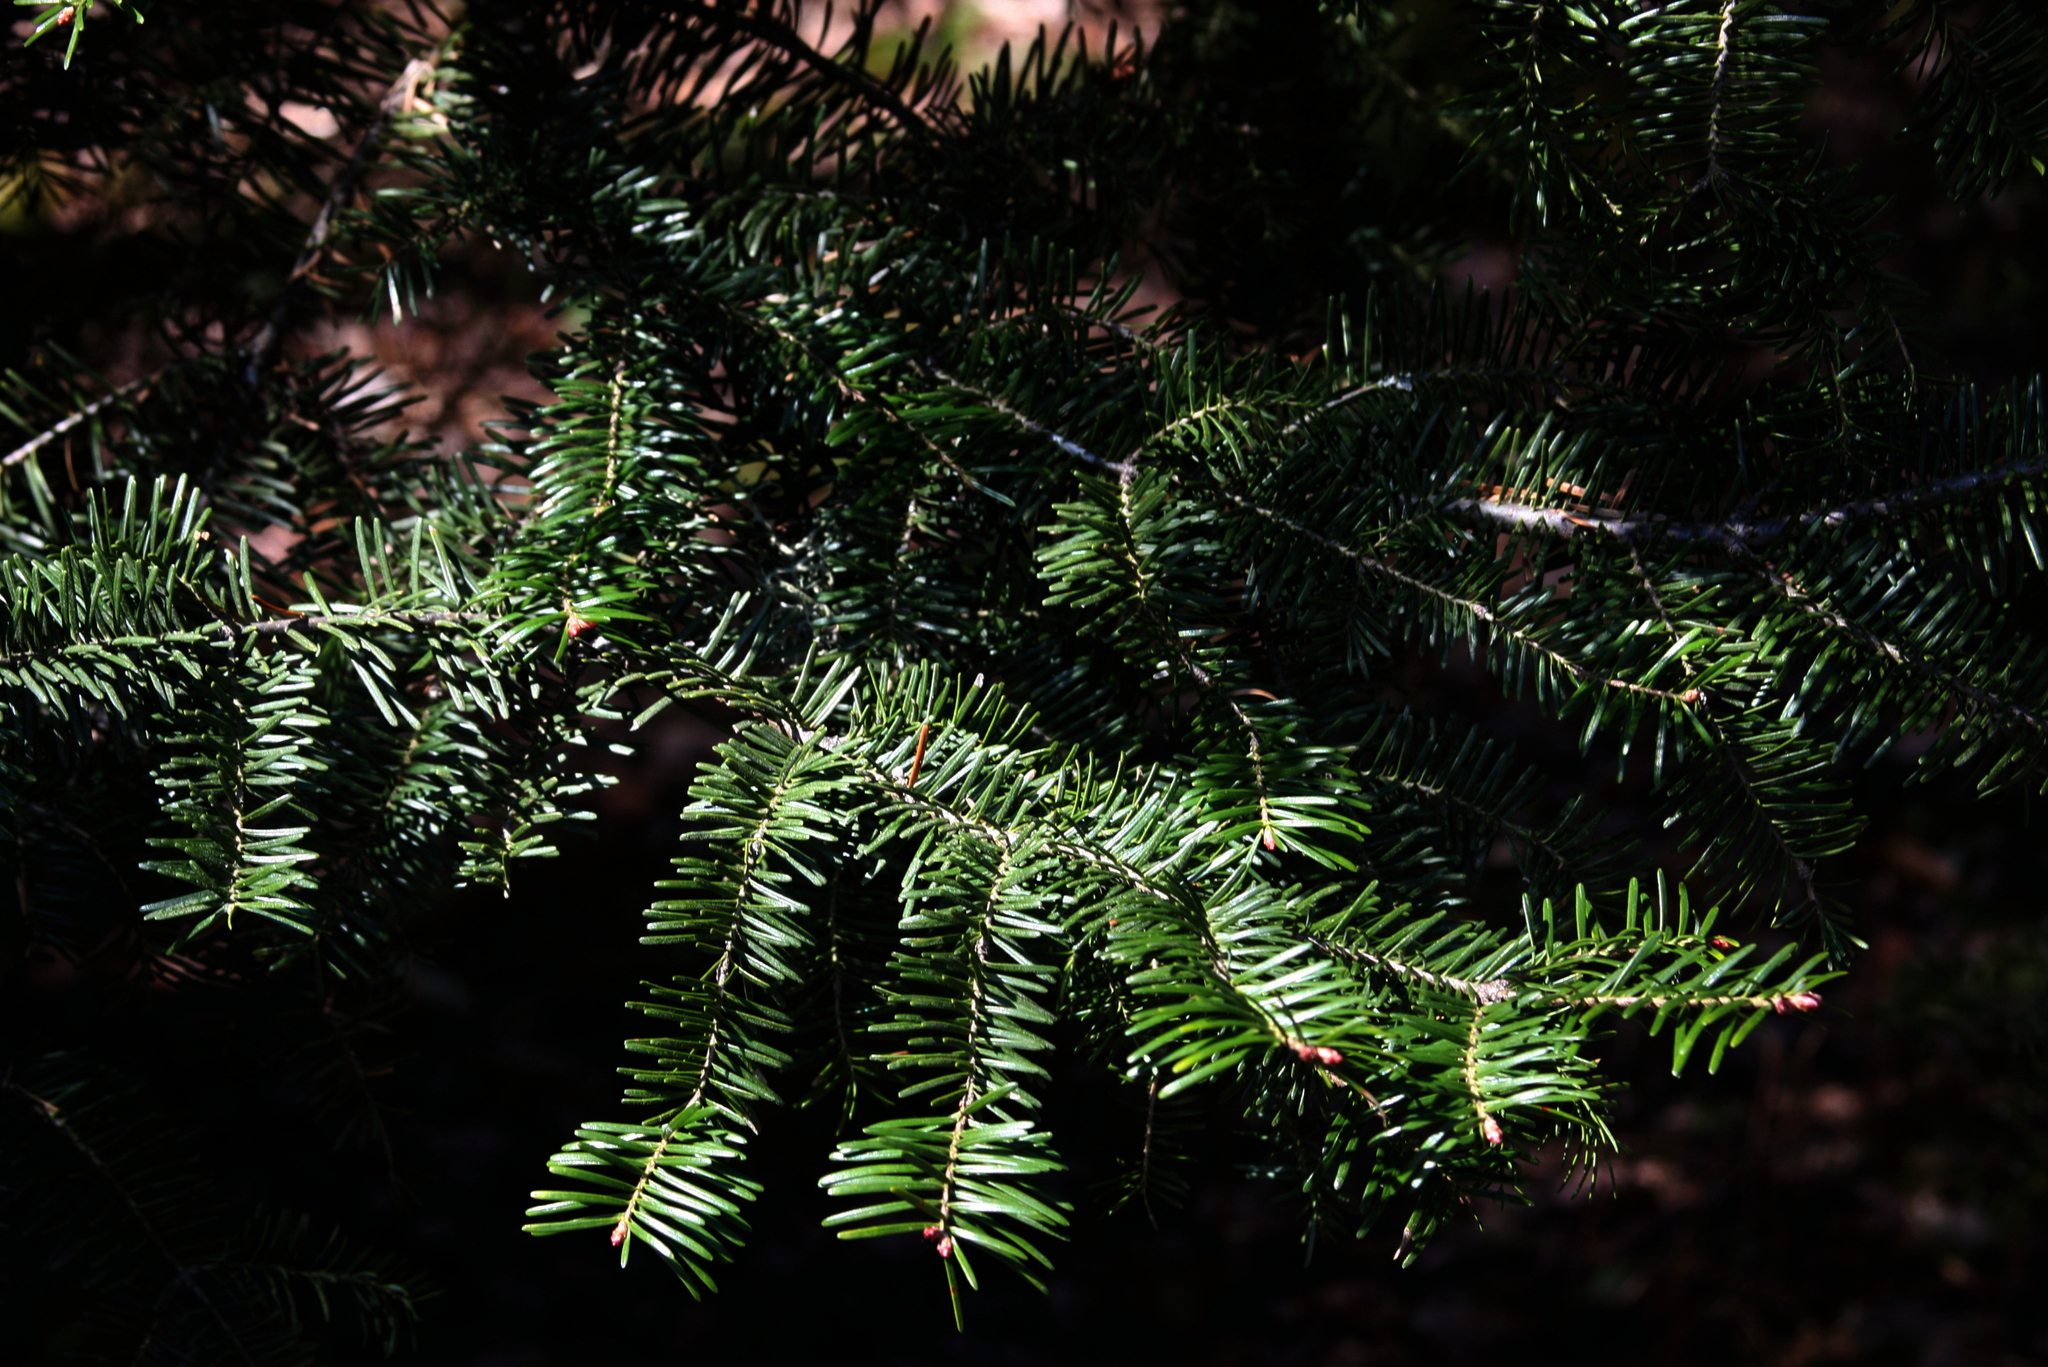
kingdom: Plantae
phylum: Tracheophyta
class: Pinopsida
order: Pinales
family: Pinaceae
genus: Abies
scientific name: Abies balsamea
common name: Balsam fir
